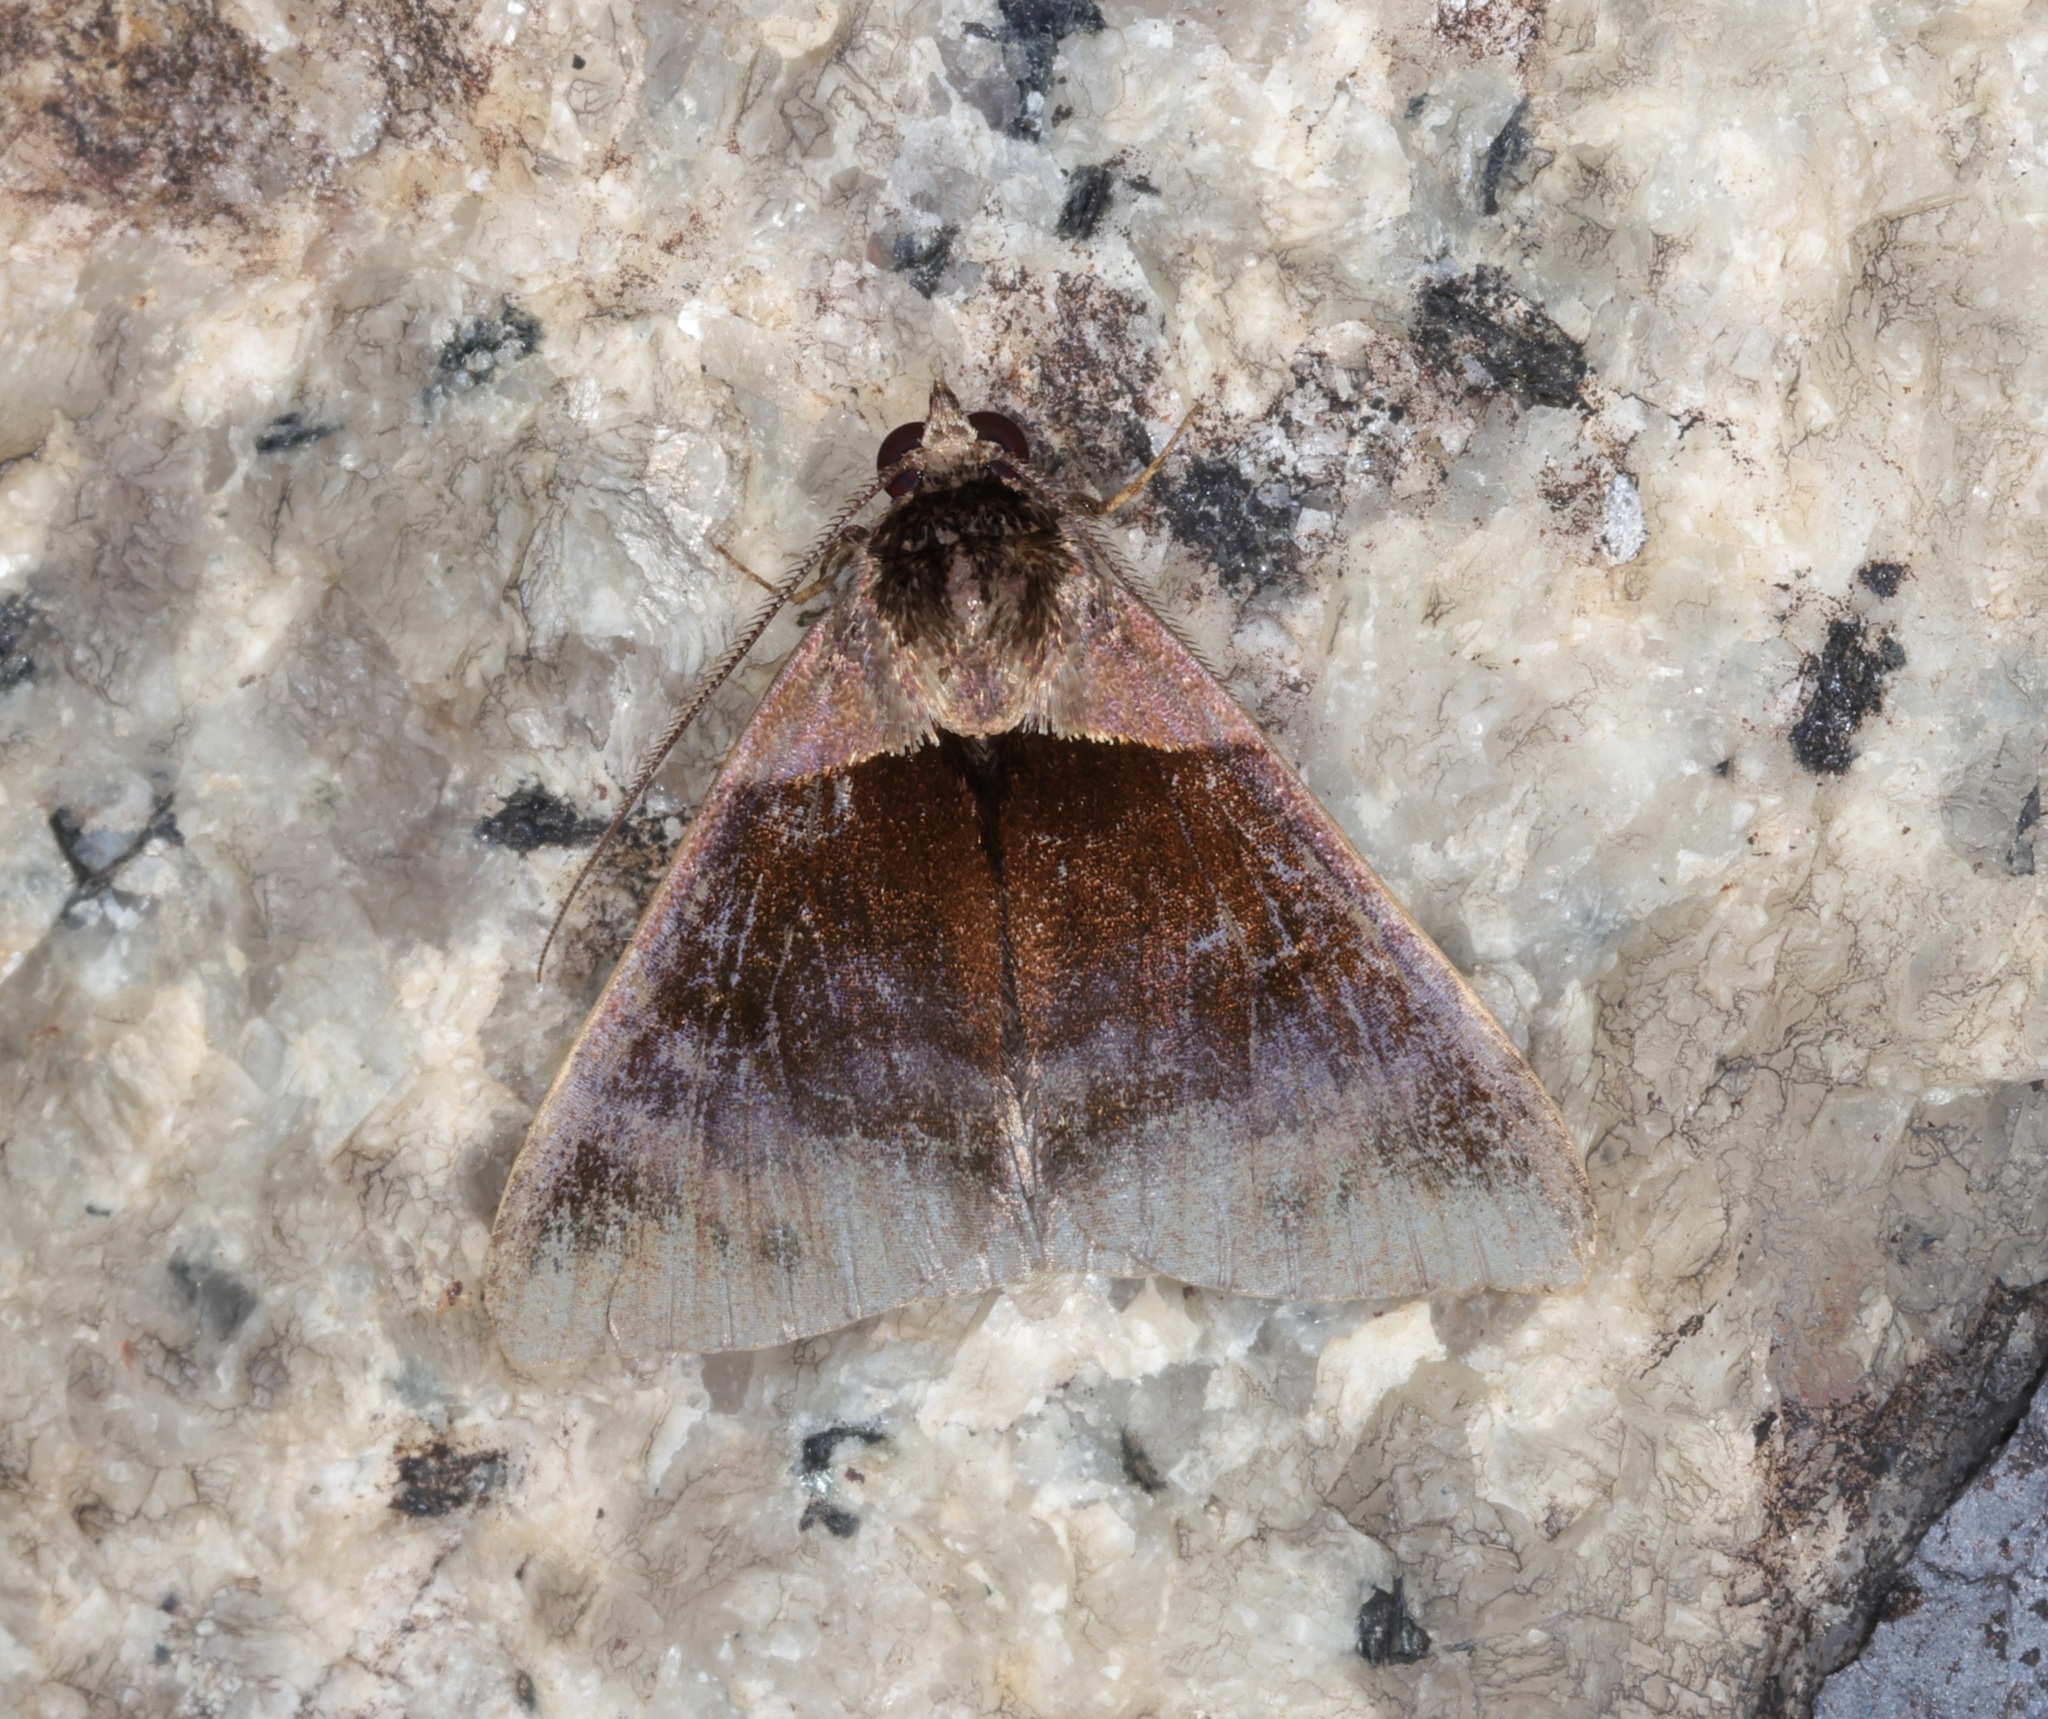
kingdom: Animalia
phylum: Arthropoda
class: Insecta
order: Lepidoptera
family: Erebidae
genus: Crithote
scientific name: Crithote pallivaga
